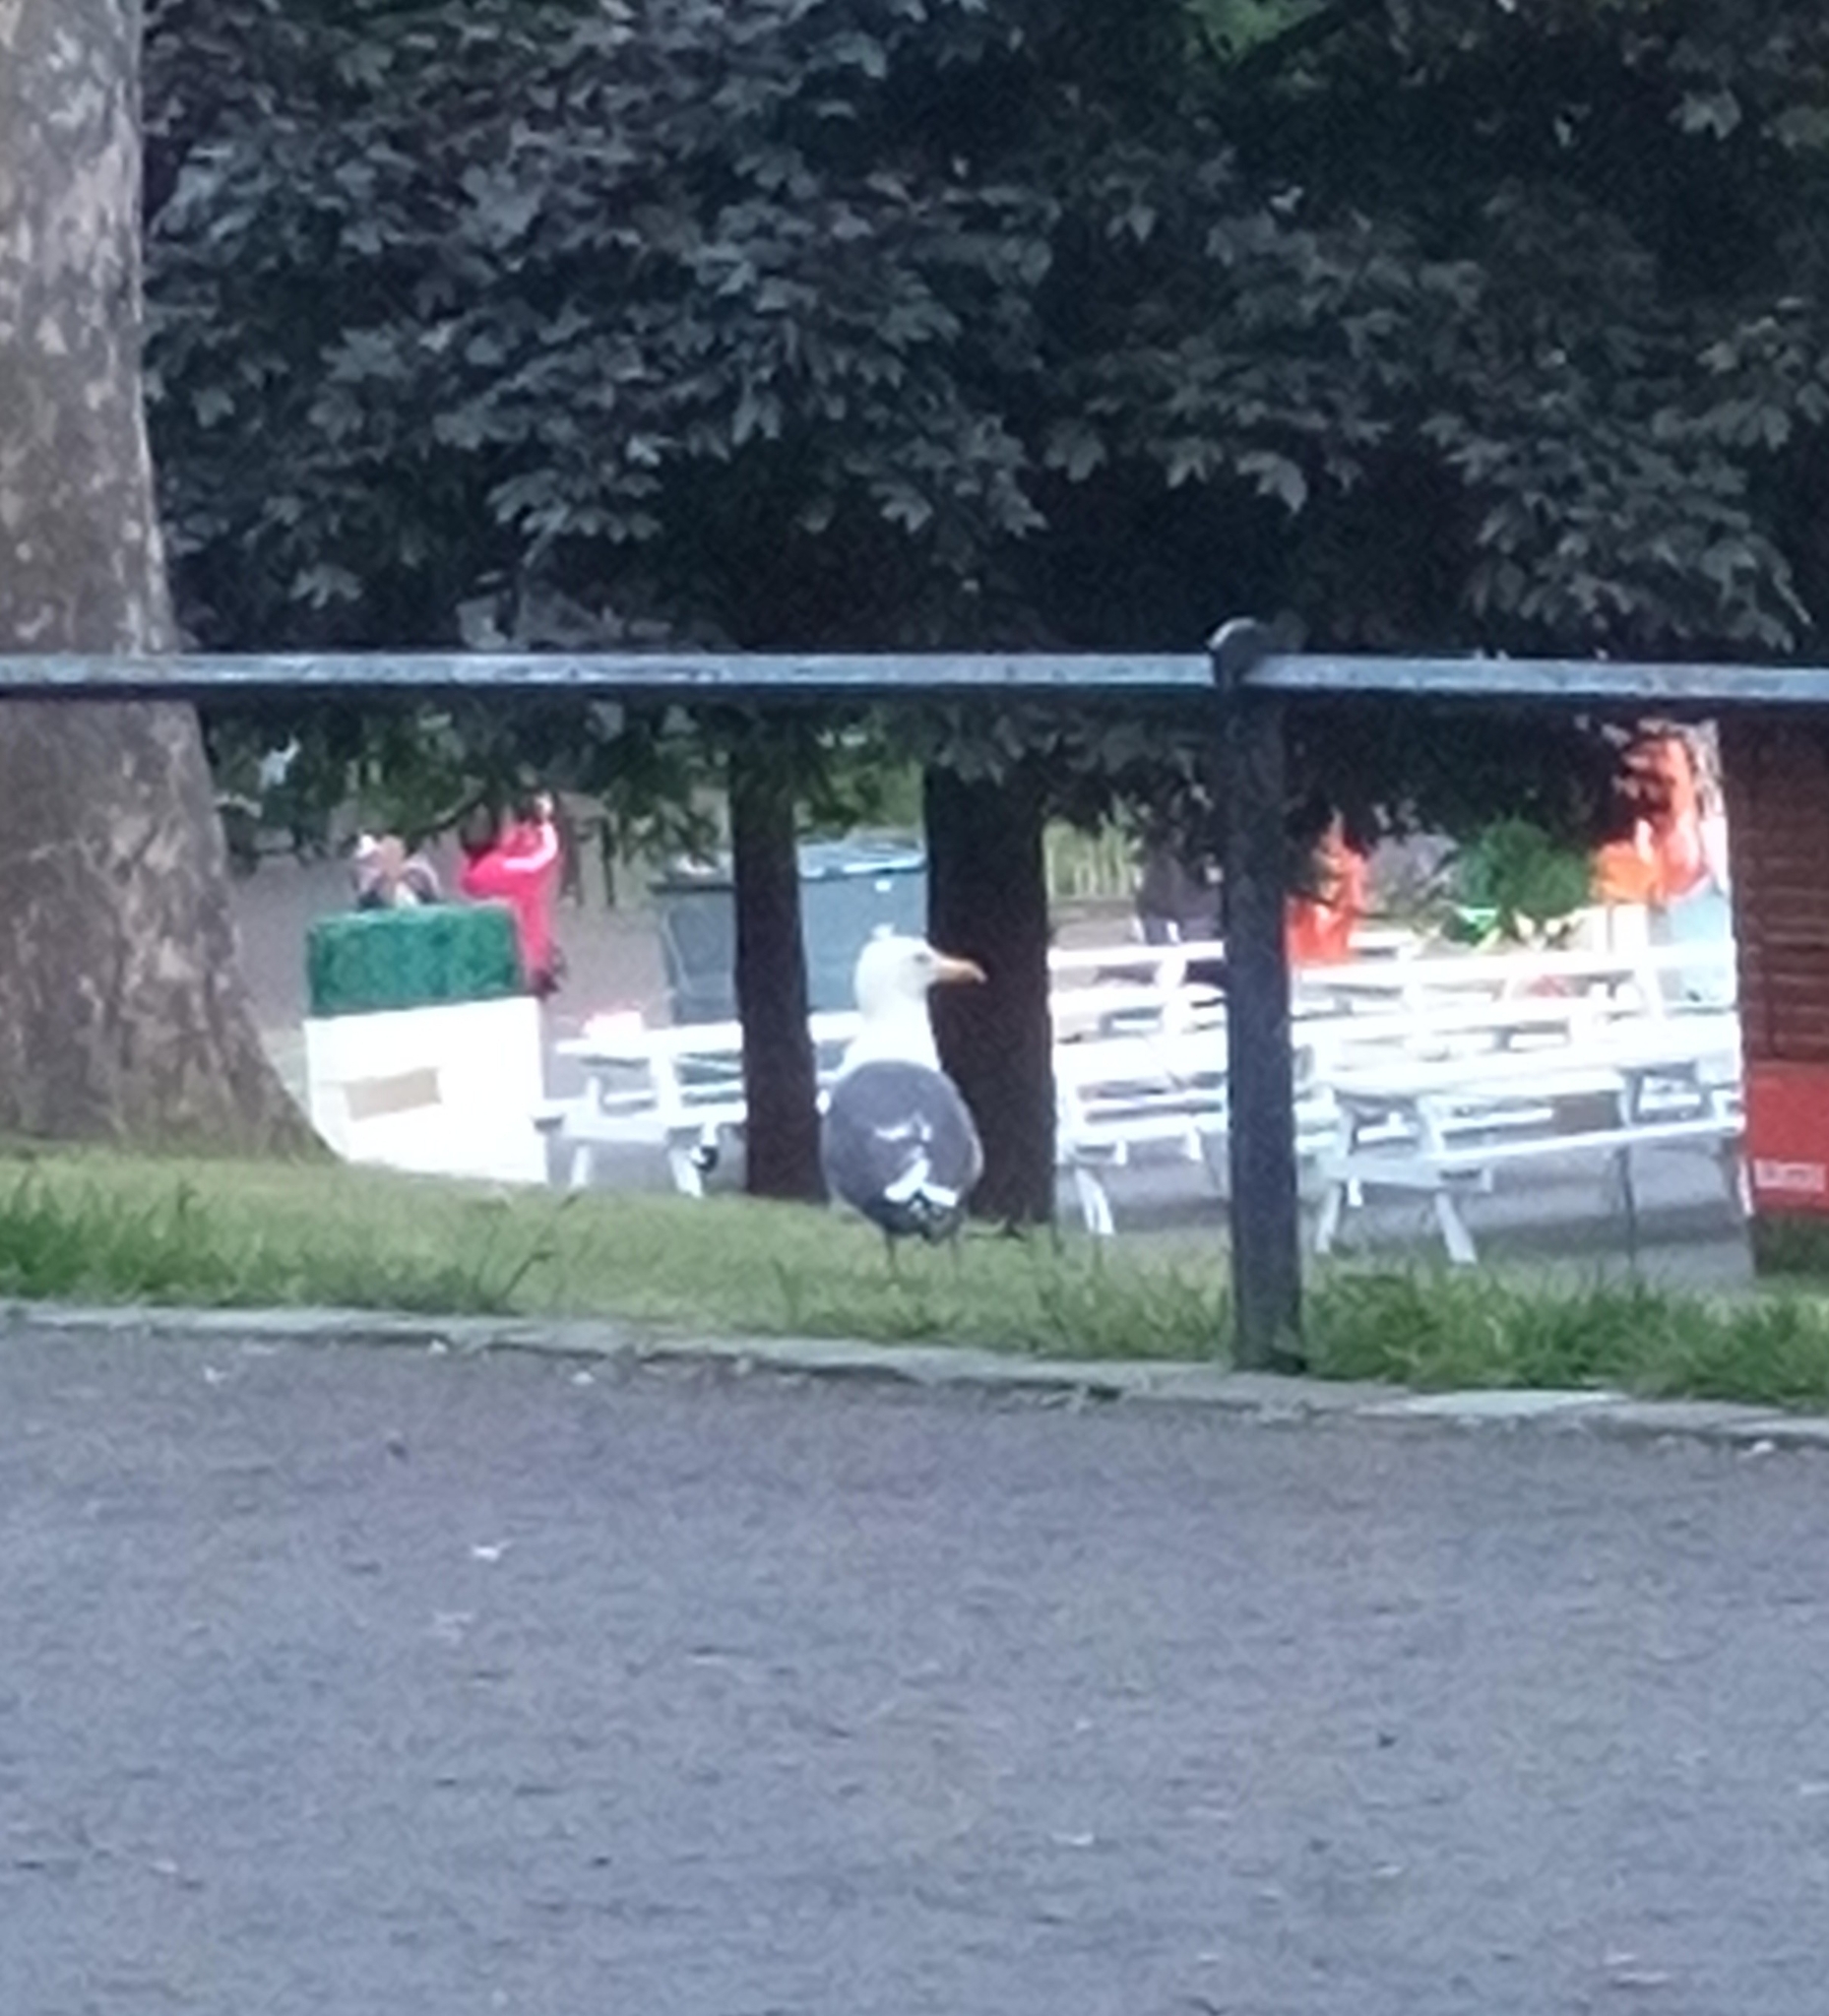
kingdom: Animalia
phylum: Chordata
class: Aves
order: Charadriiformes
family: Laridae
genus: Larus
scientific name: Larus fuscus
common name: Lesser black-backed gull
